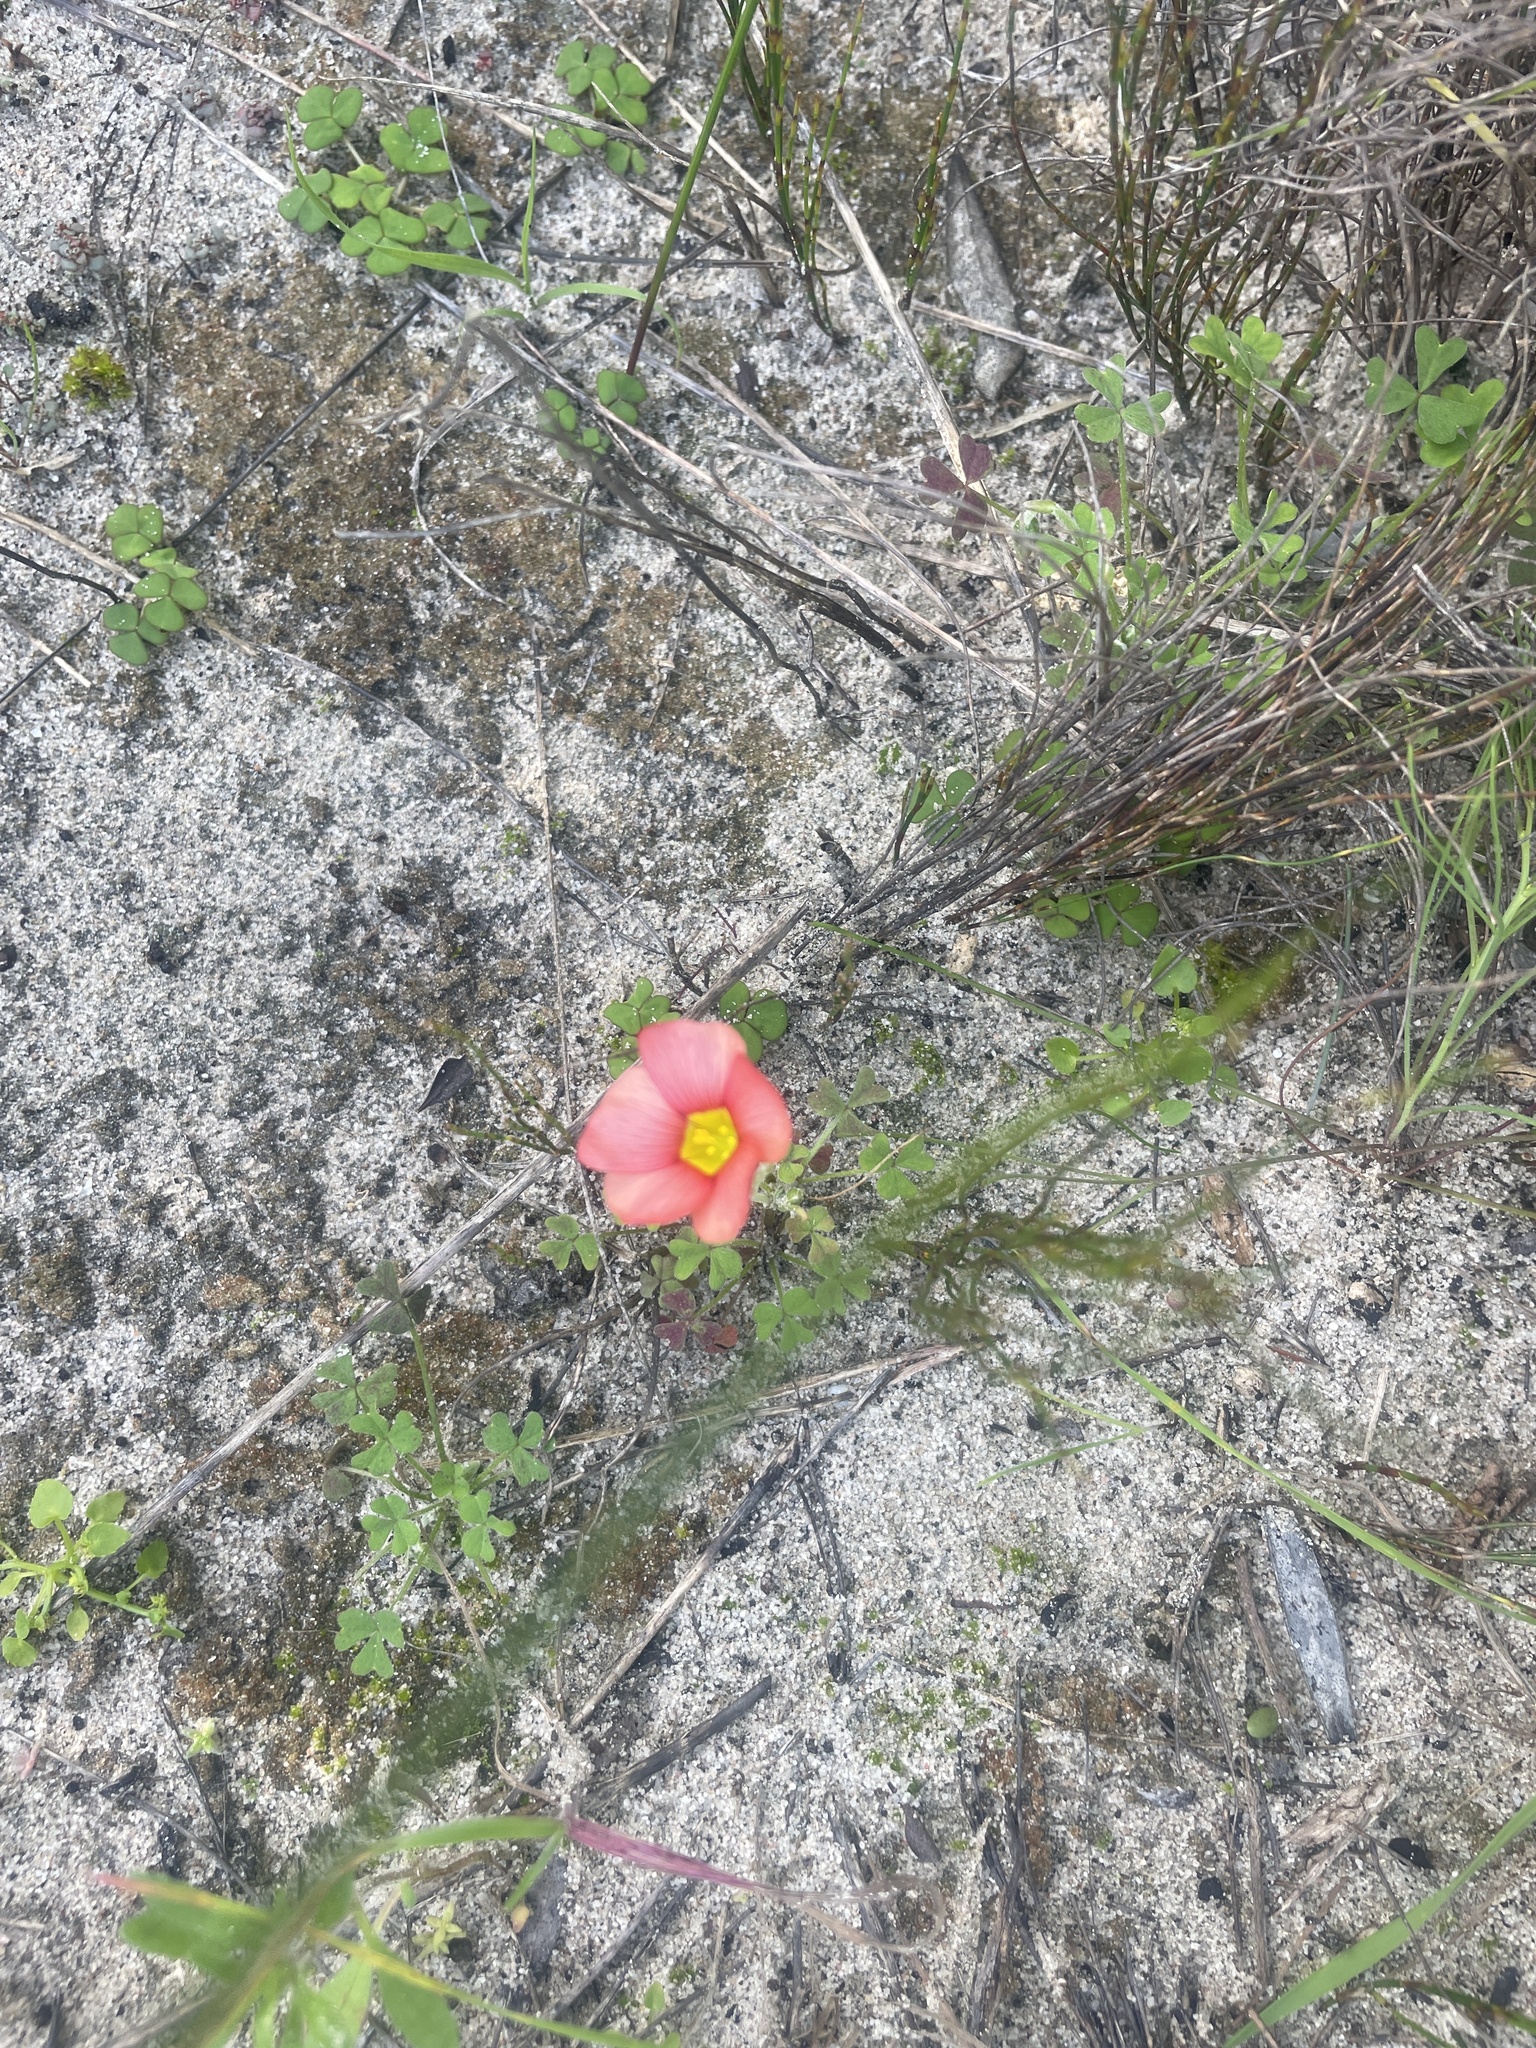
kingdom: Plantae
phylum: Tracheophyta
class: Magnoliopsida
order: Oxalidales
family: Oxalidaceae
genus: Oxalis
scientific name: Oxalis obtusa
